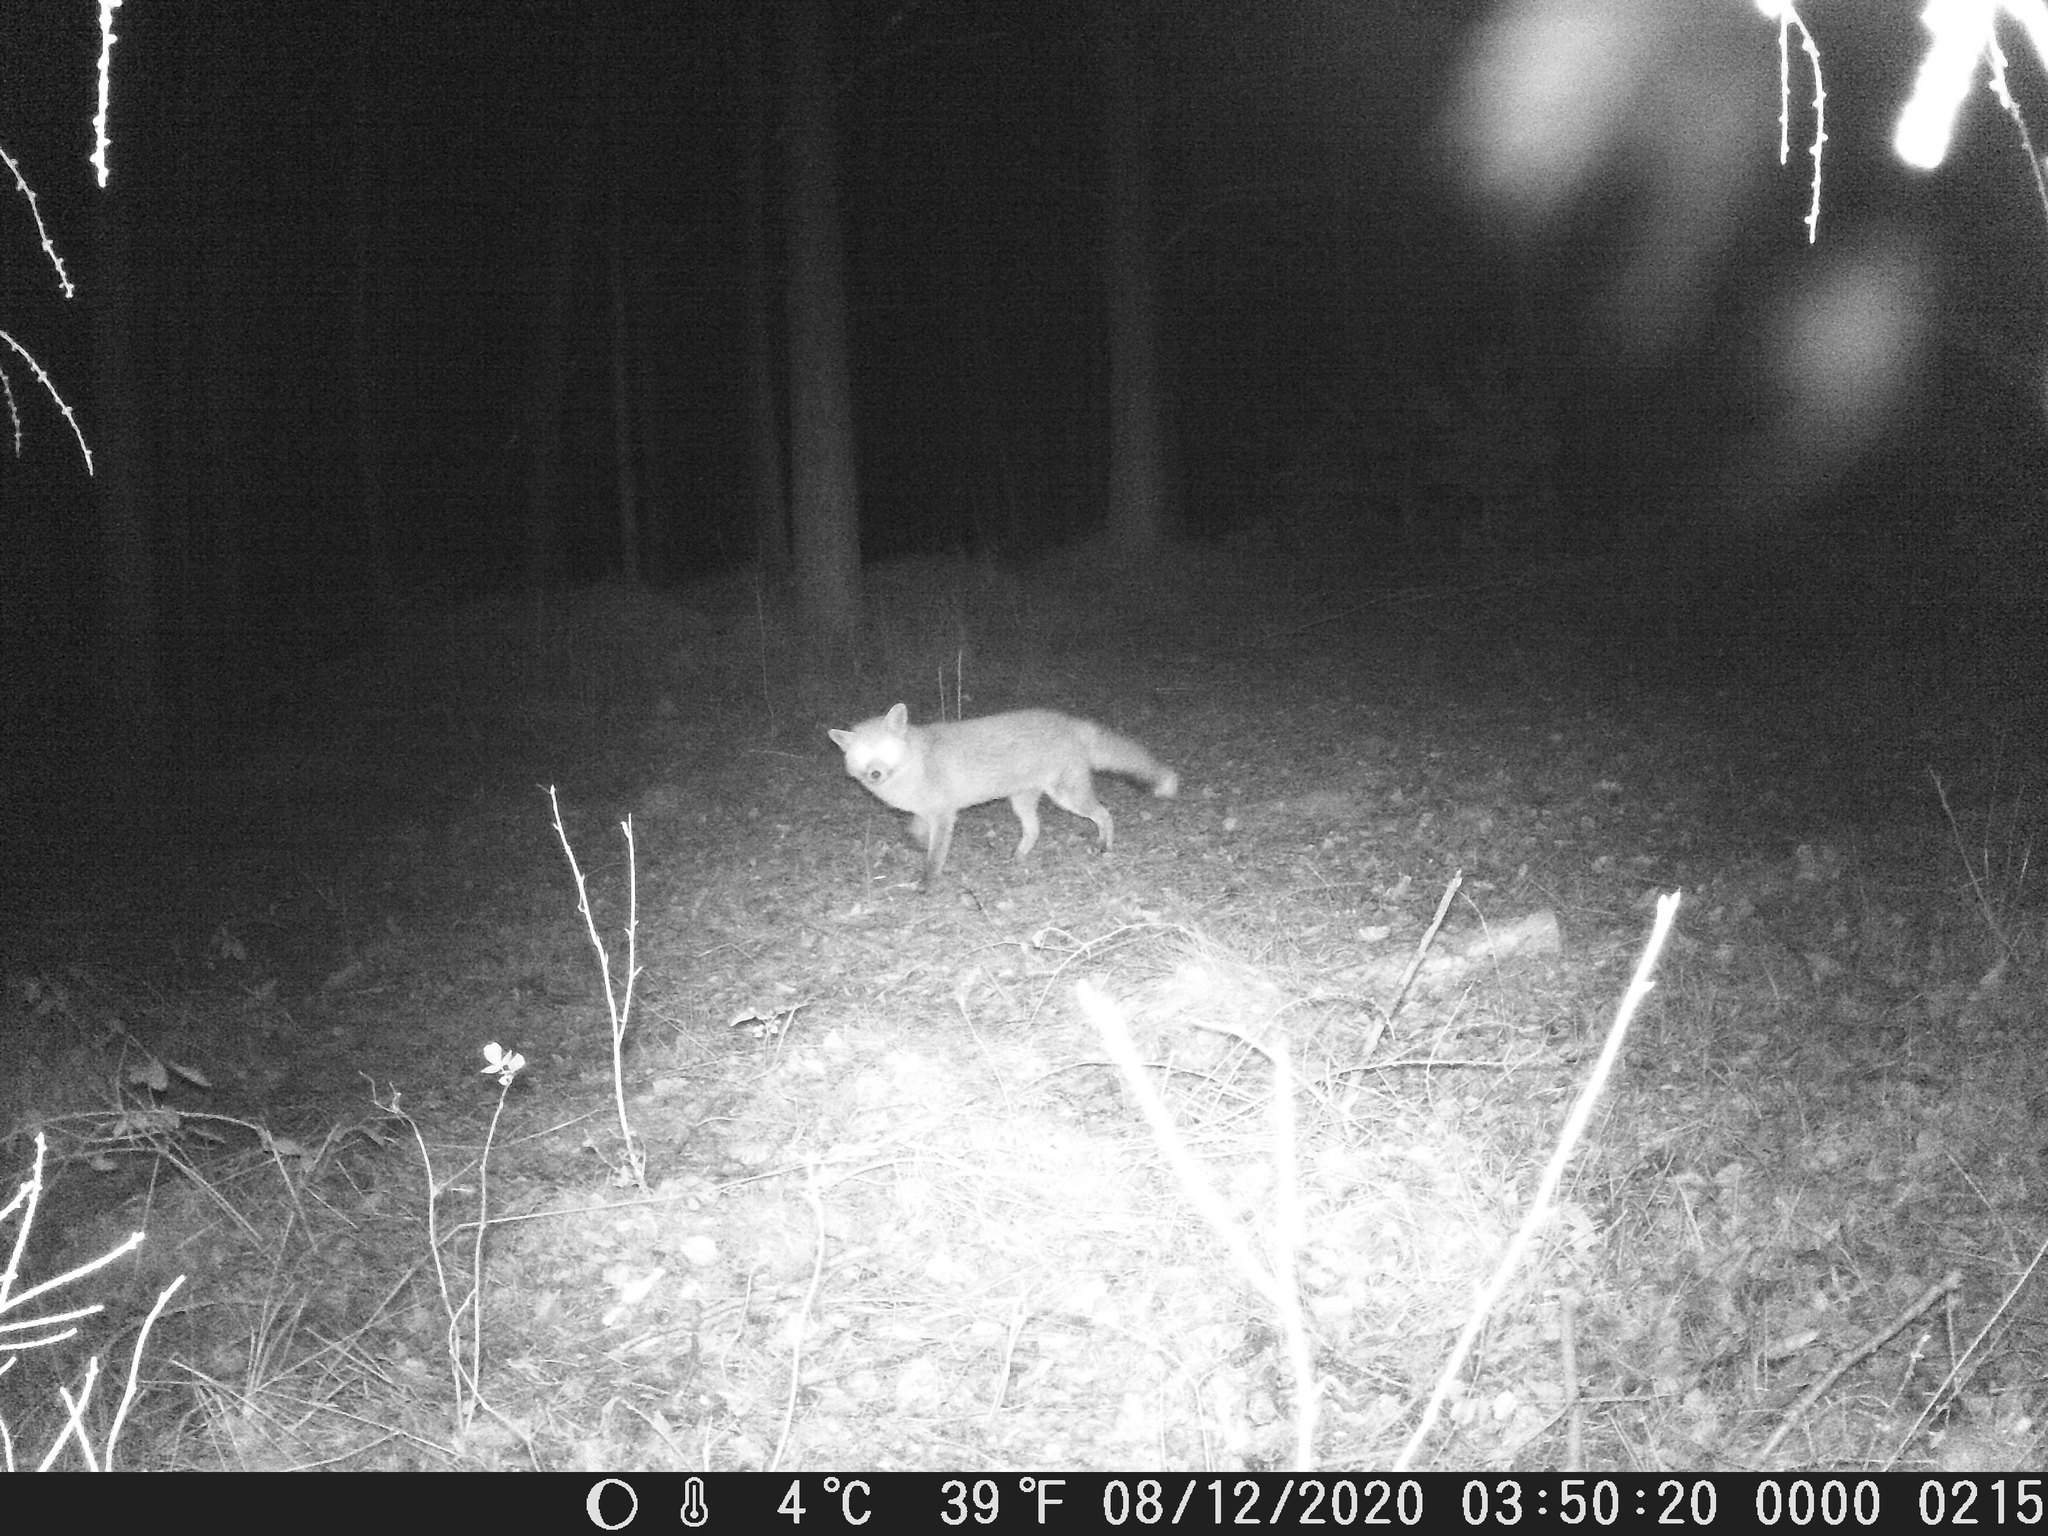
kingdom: Animalia
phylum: Chordata
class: Mammalia
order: Carnivora
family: Canidae
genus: Vulpes
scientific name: Vulpes vulpes
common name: Red fox
